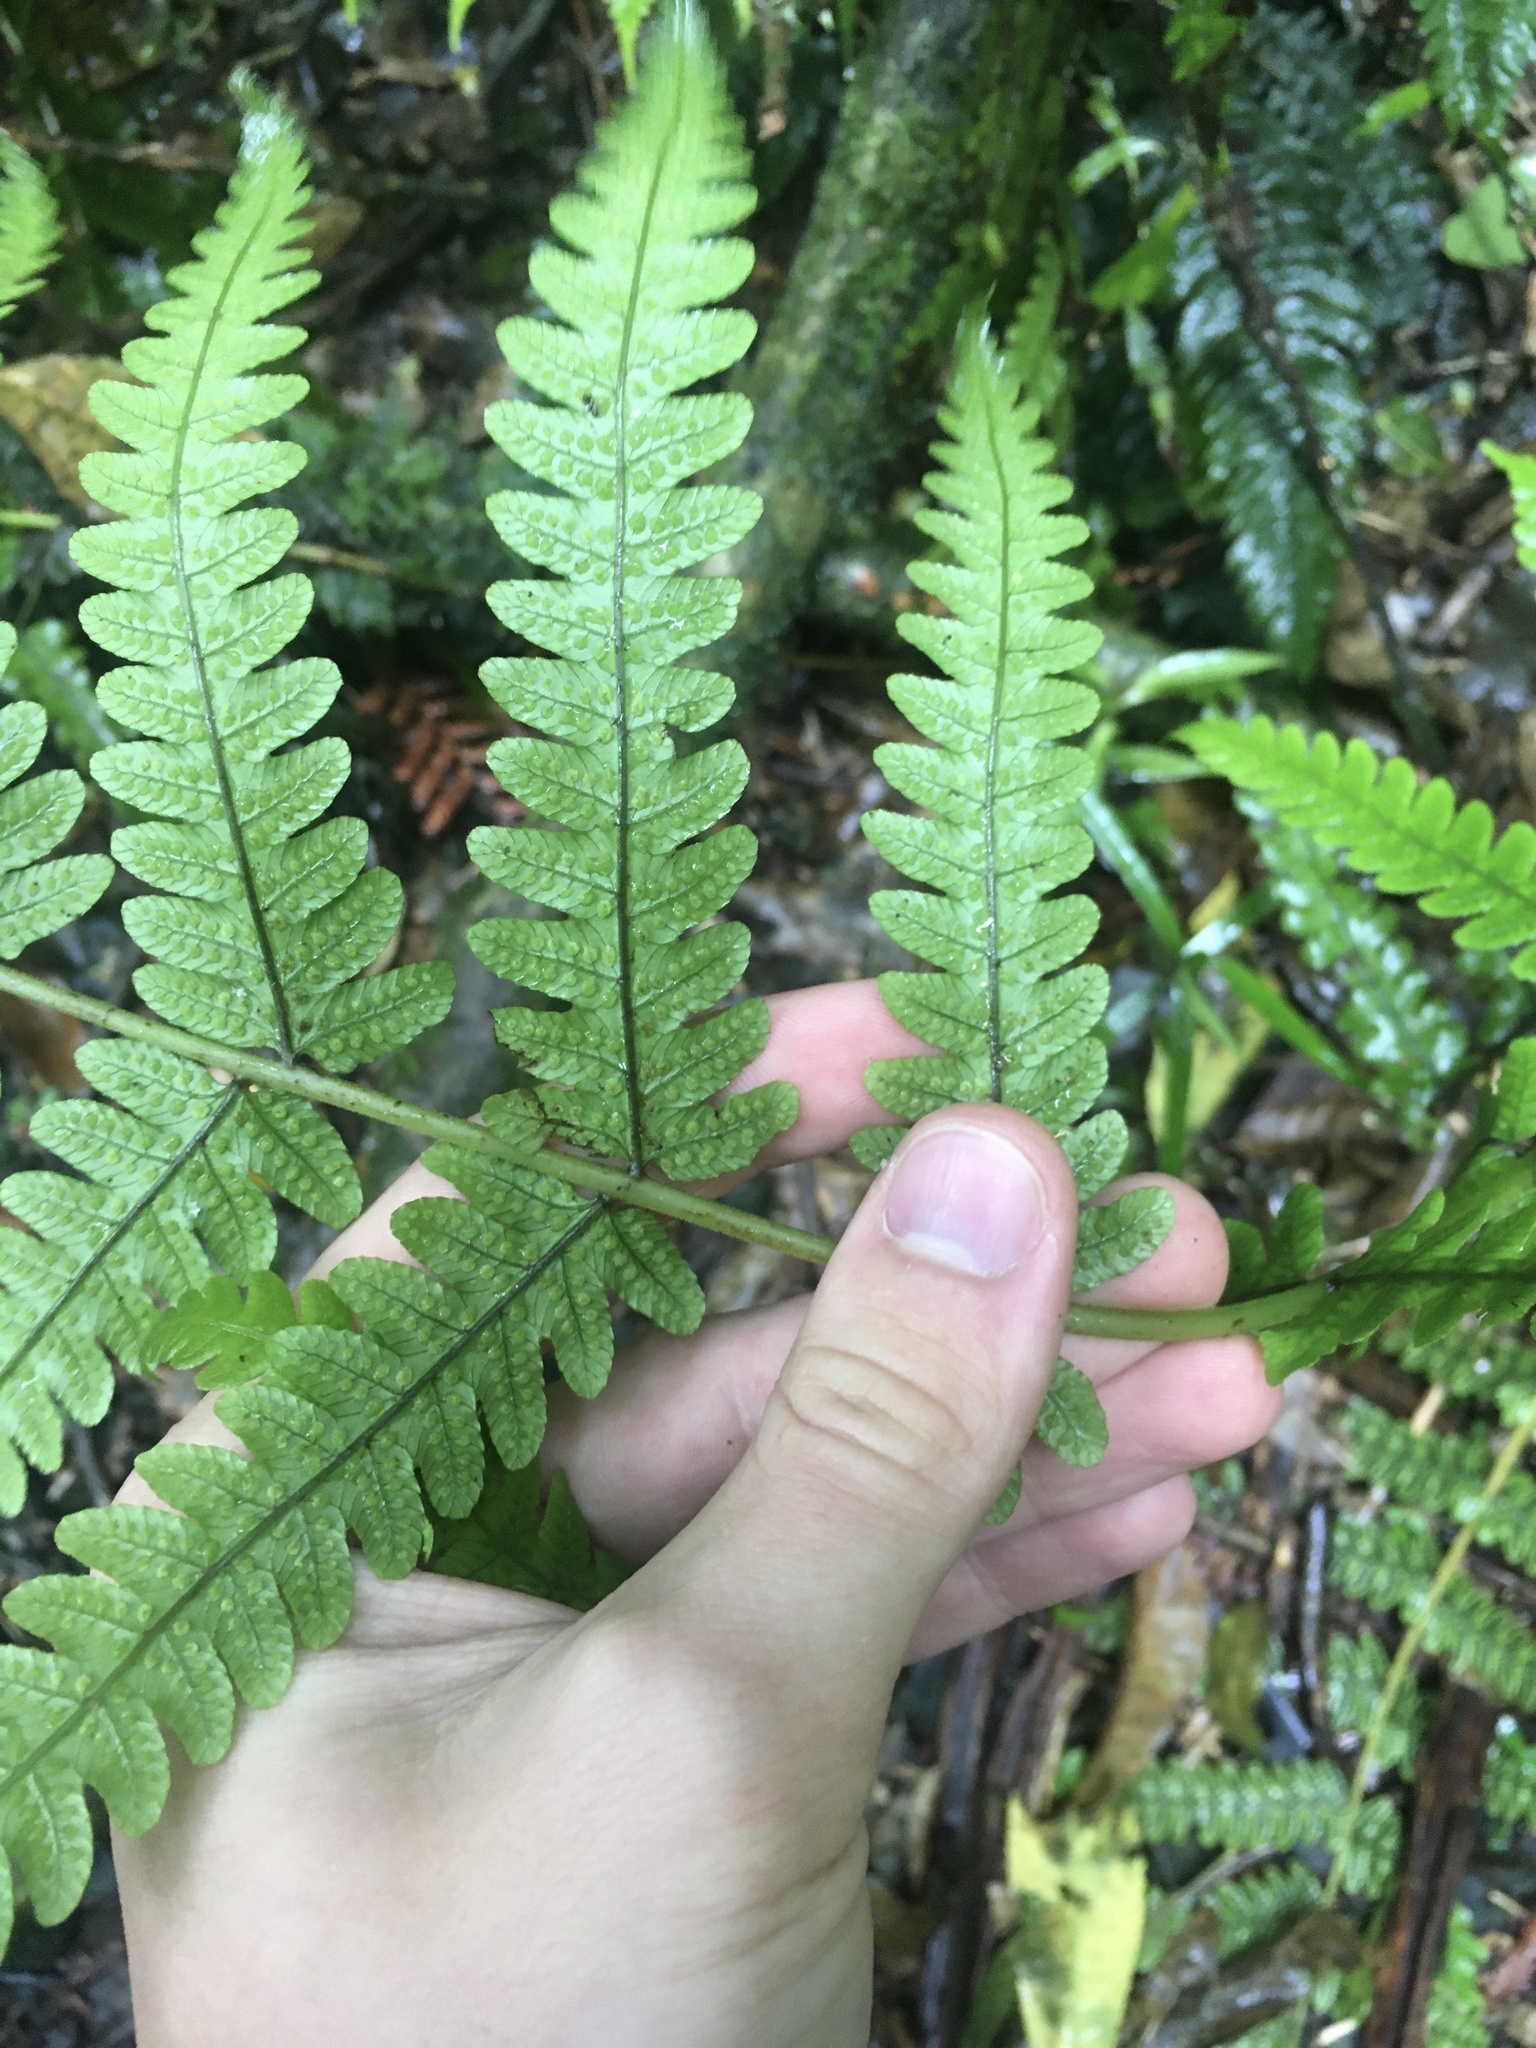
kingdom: Plantae
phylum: Tracheophyta
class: Polypodiopsida
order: Polypodiales
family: Thelypteridaceae
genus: Pakau
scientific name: Pakau pennigera
